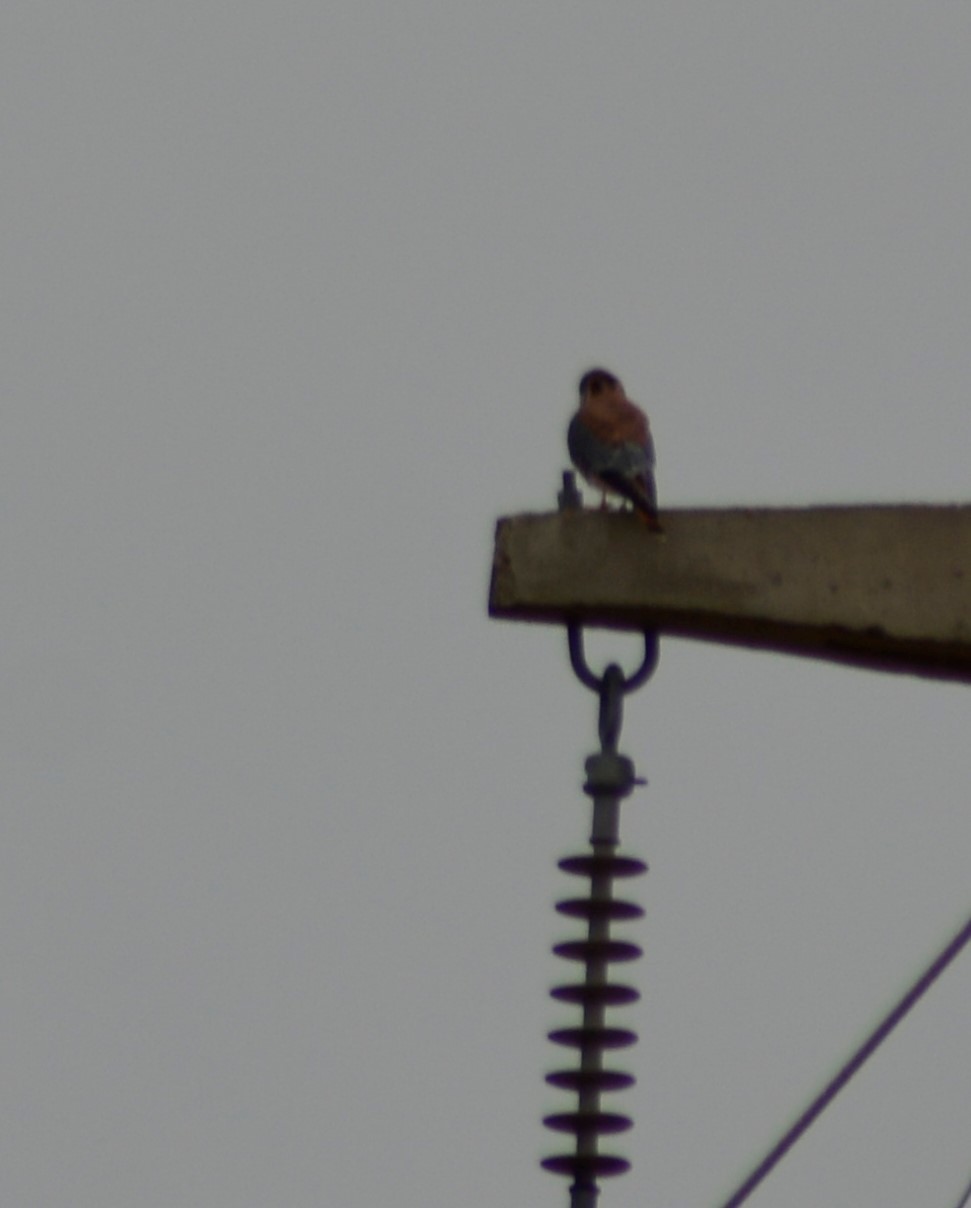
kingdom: Animalia
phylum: Chordata
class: Aves
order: Falconiformes
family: Falconidae
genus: Falco
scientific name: Falco sparverius
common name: American kestrel
